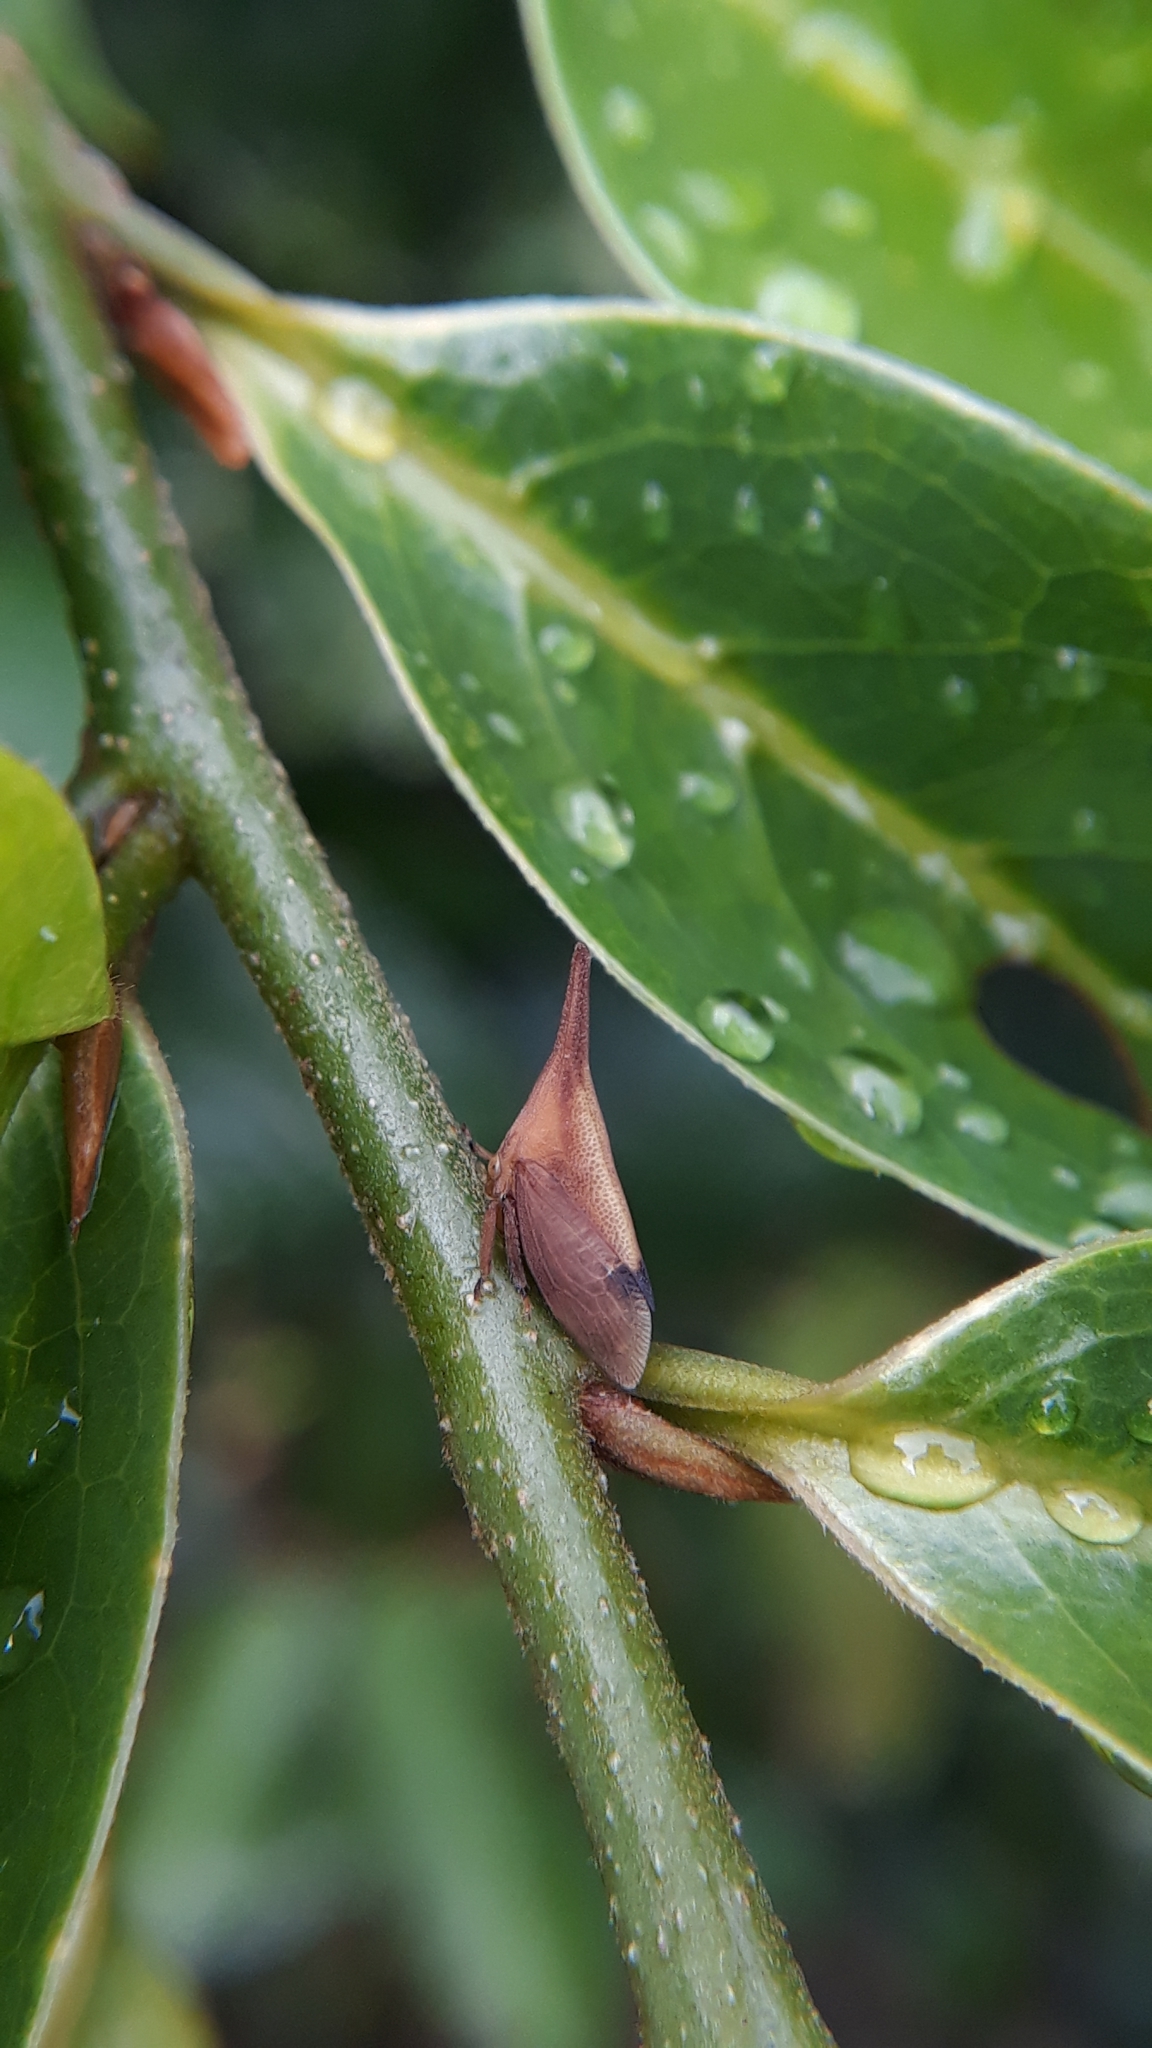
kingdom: Animalia
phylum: Arthropoda
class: Insecta
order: Hemiptera
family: Membracidae
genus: Enchenopa
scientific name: Enchenopa concolor
